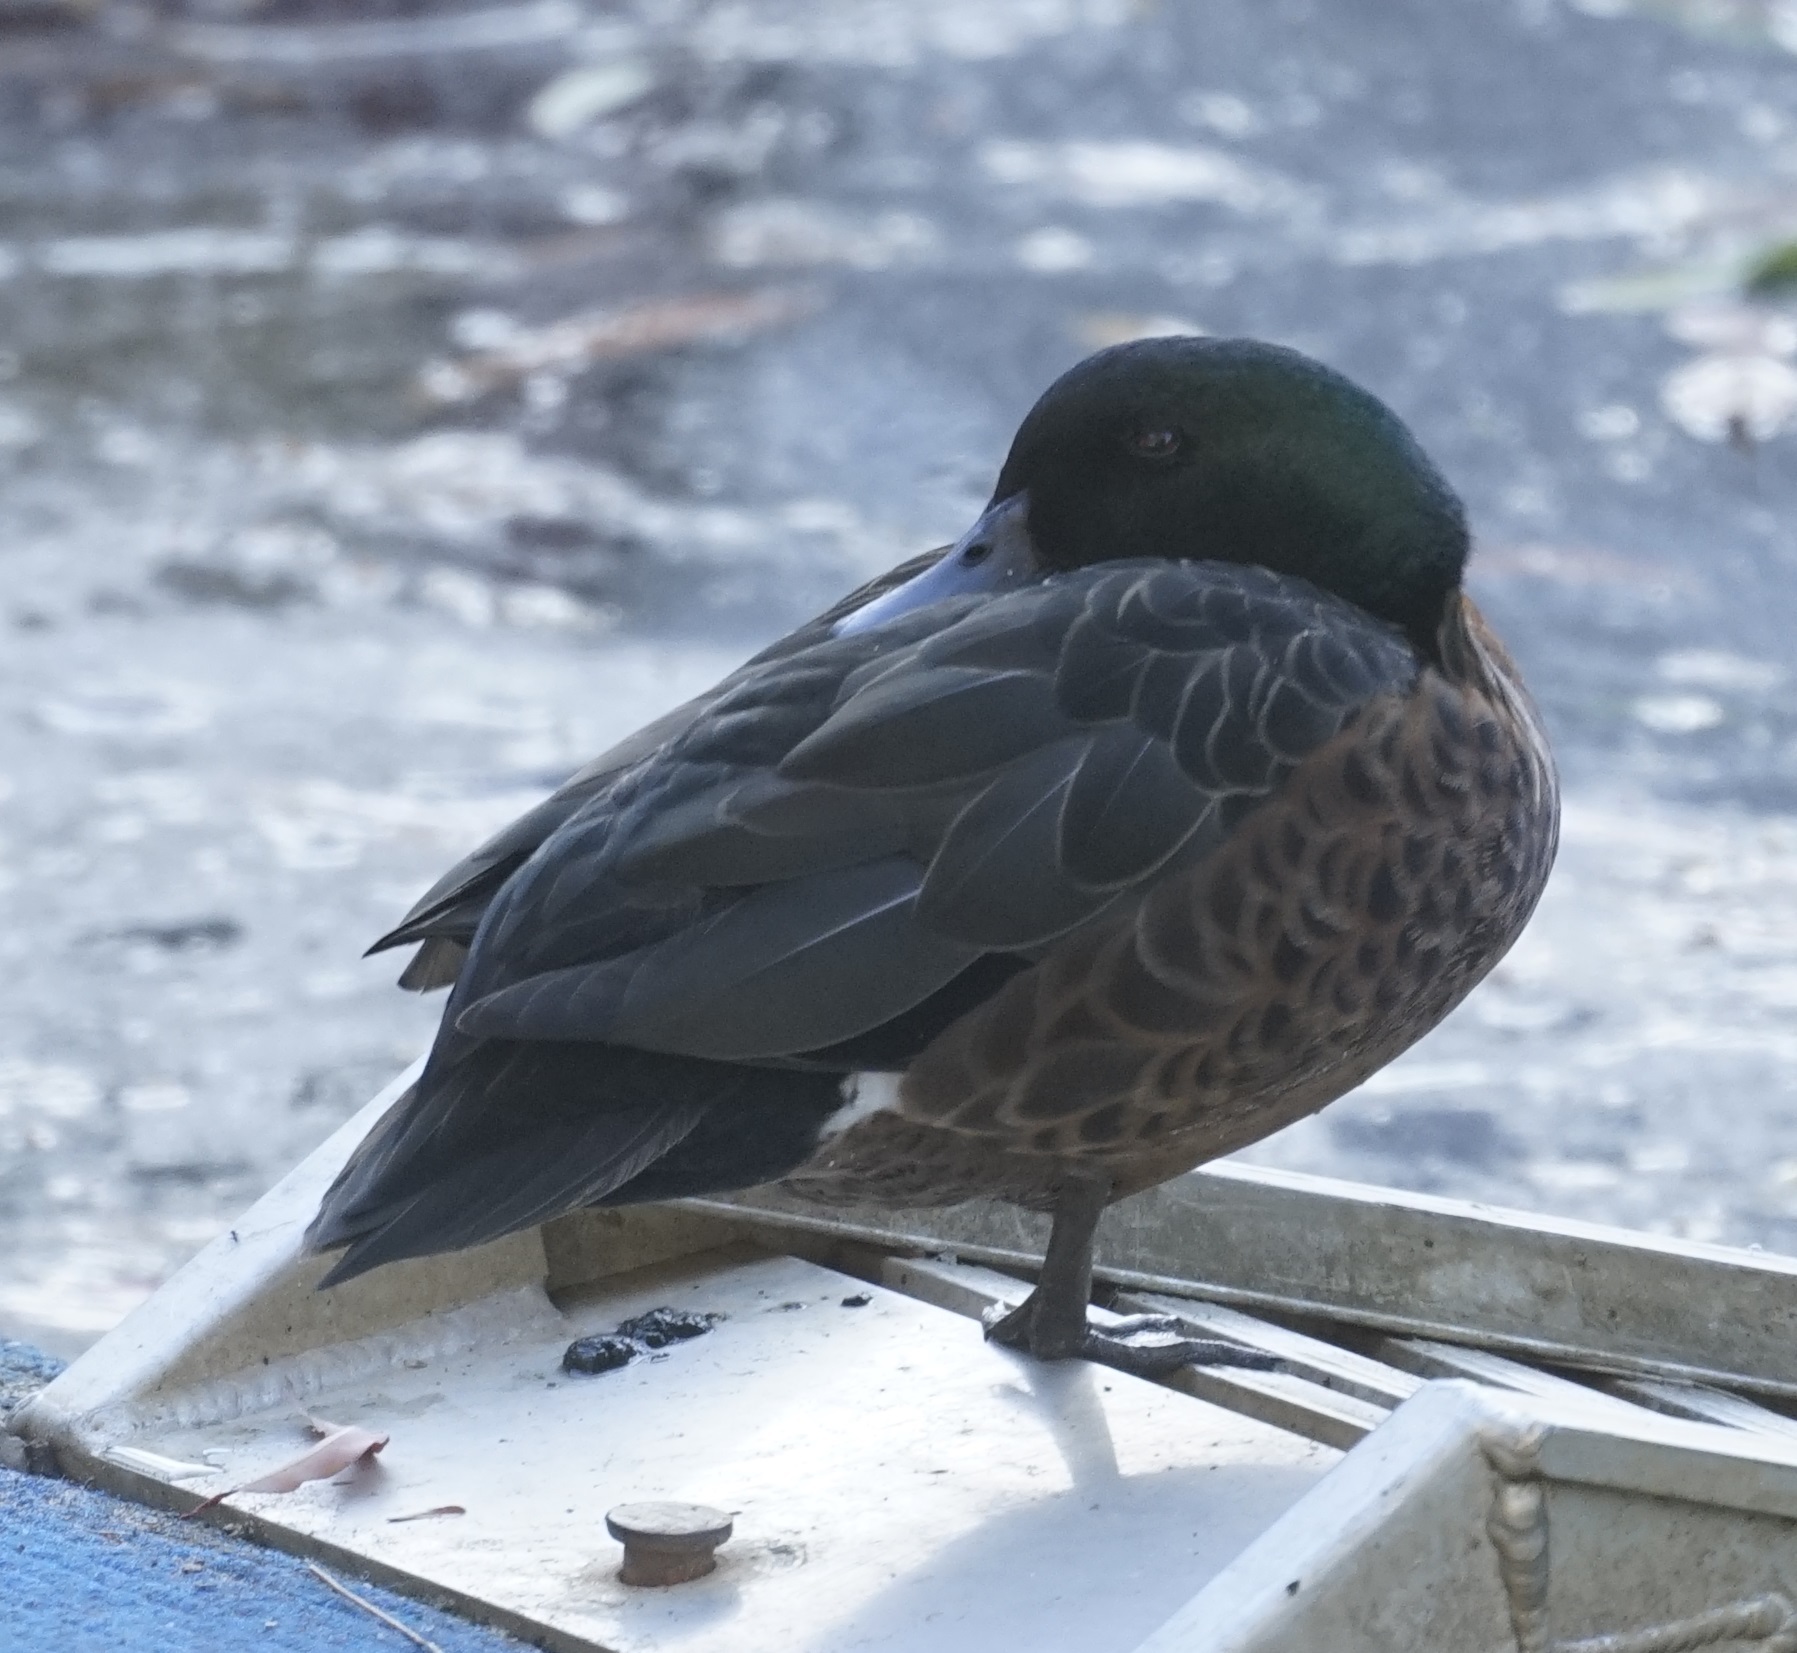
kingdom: Animalia
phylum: Chordata
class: Aves
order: Anseriformes
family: Anatidae
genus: Anas
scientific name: Anas castanea
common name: Chestnut teal
